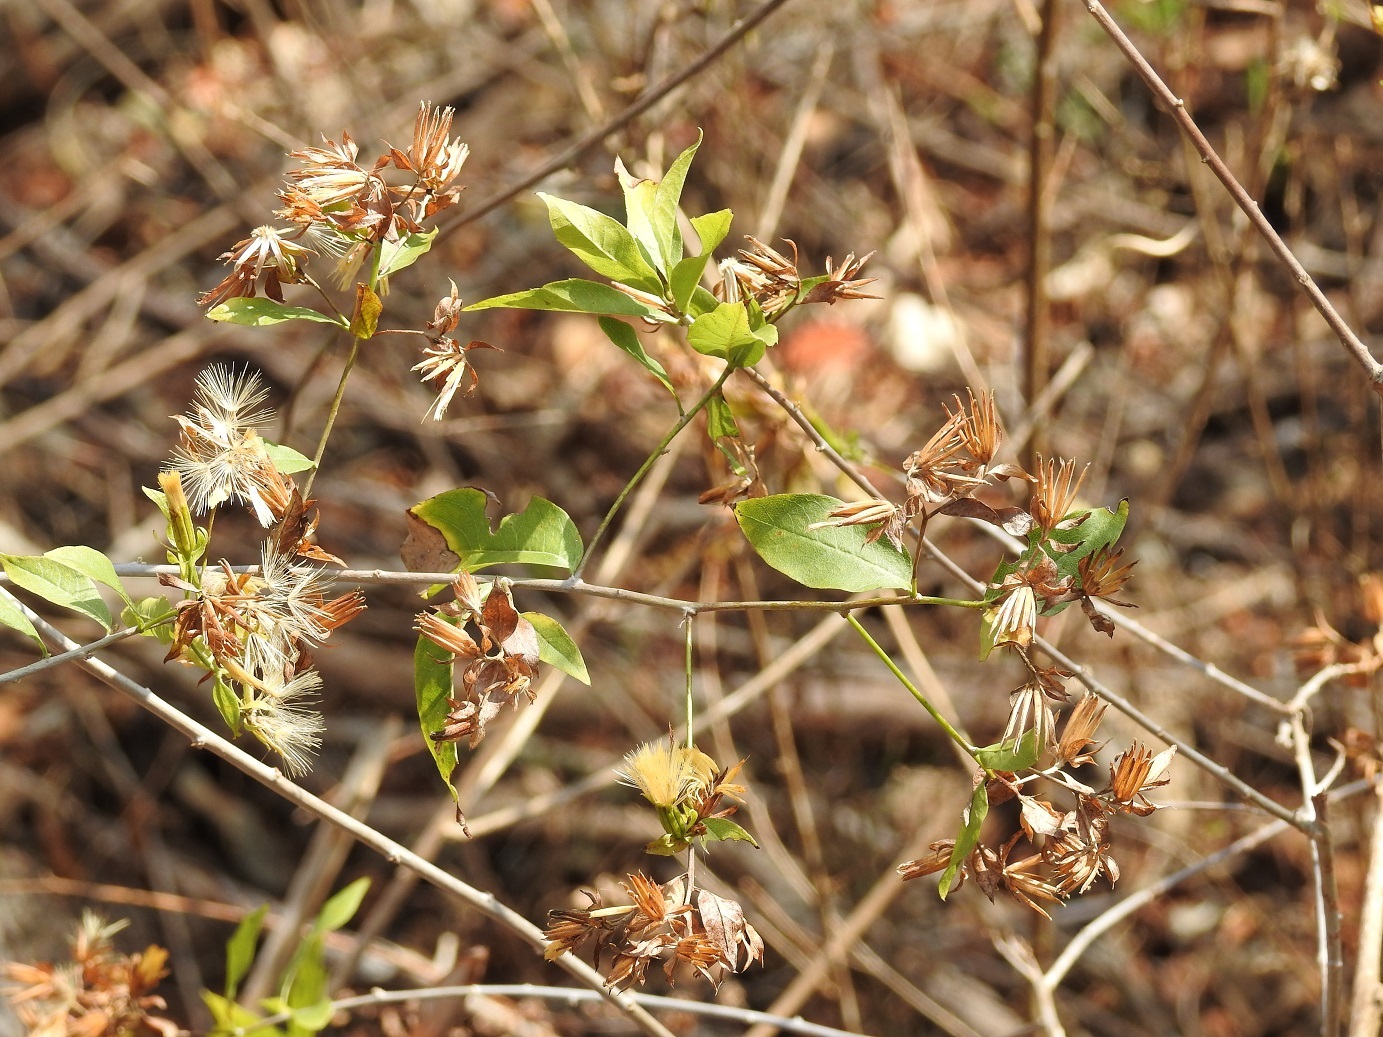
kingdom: Plantae
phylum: Tracheophyta
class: Magnoliopsida
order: Asterales
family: Asteraceae
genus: Trixis
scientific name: Trixis inula
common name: Tropical threefold
